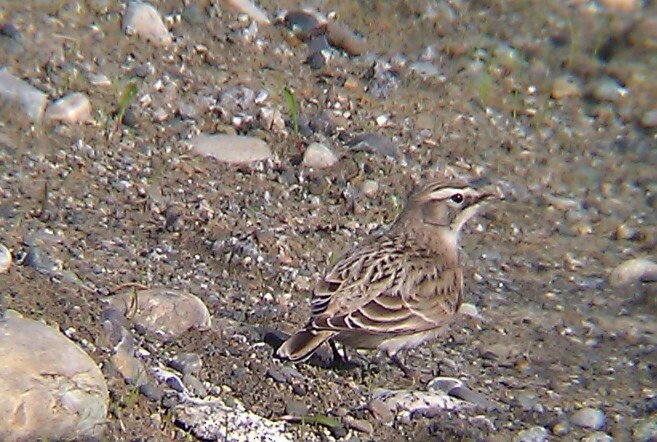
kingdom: Animalia
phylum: Chordata
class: Aves
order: Passeriformes
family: Alaudidae
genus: Eremophila
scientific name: Eremophila alpestris
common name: Horned lark
